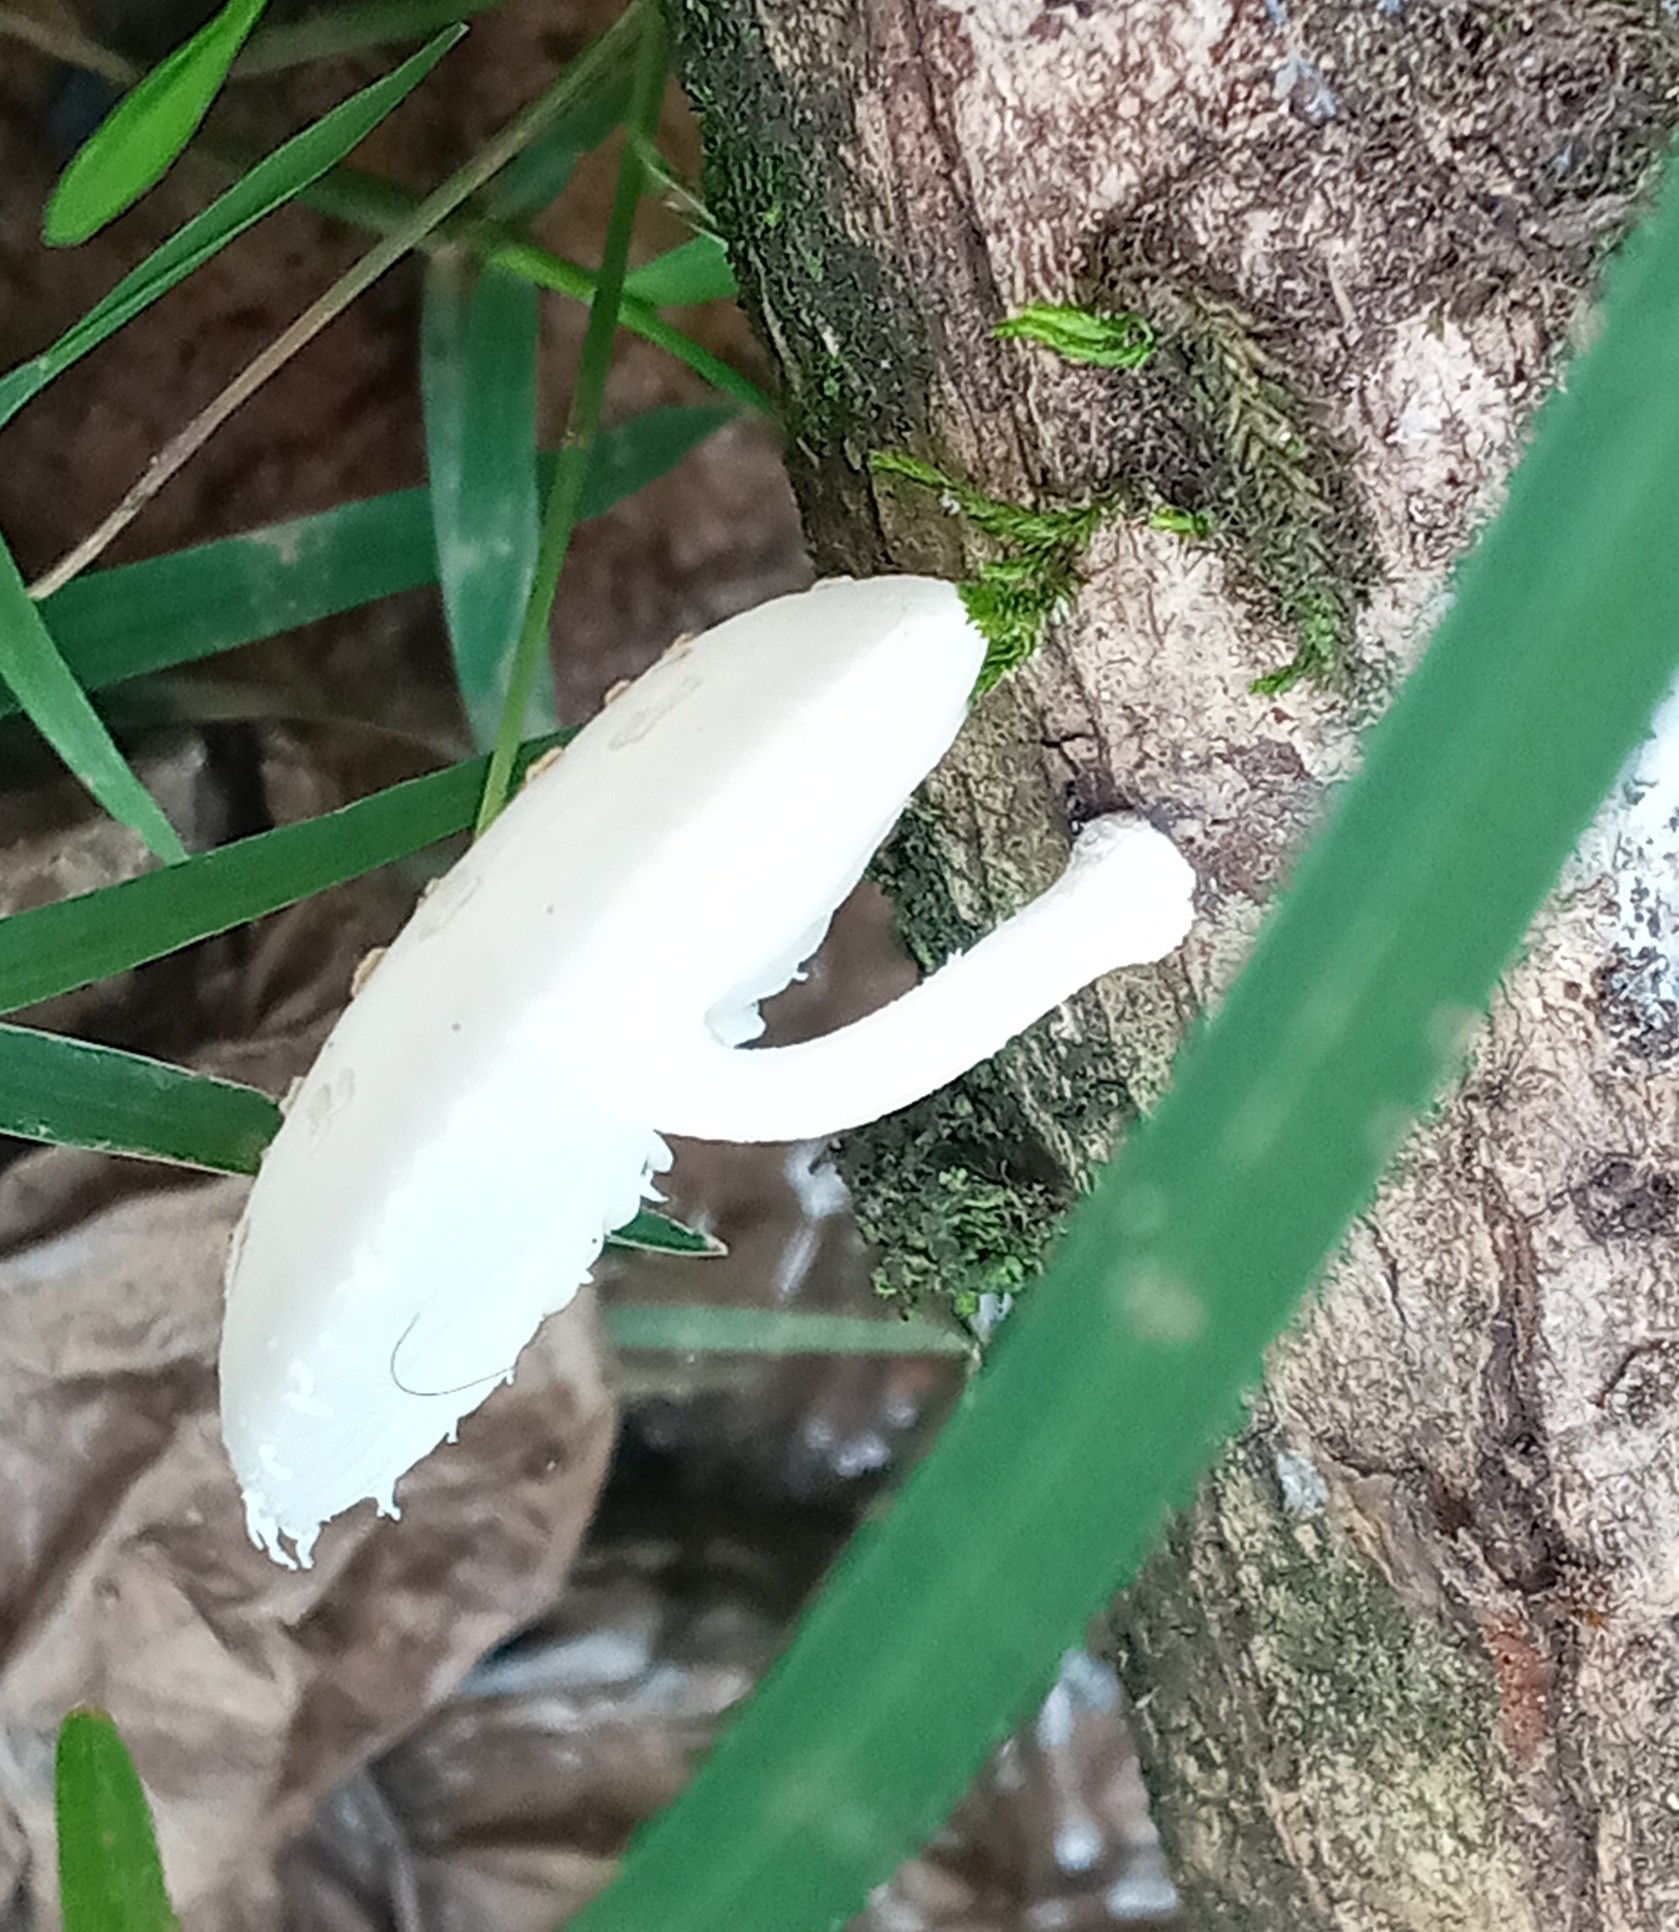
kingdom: Fungi
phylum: Basidiomycota
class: Agaricomycetes
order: Agaricales
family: Physalacriaceae
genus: Oudemansiella
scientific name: Oudemansiella canarii
